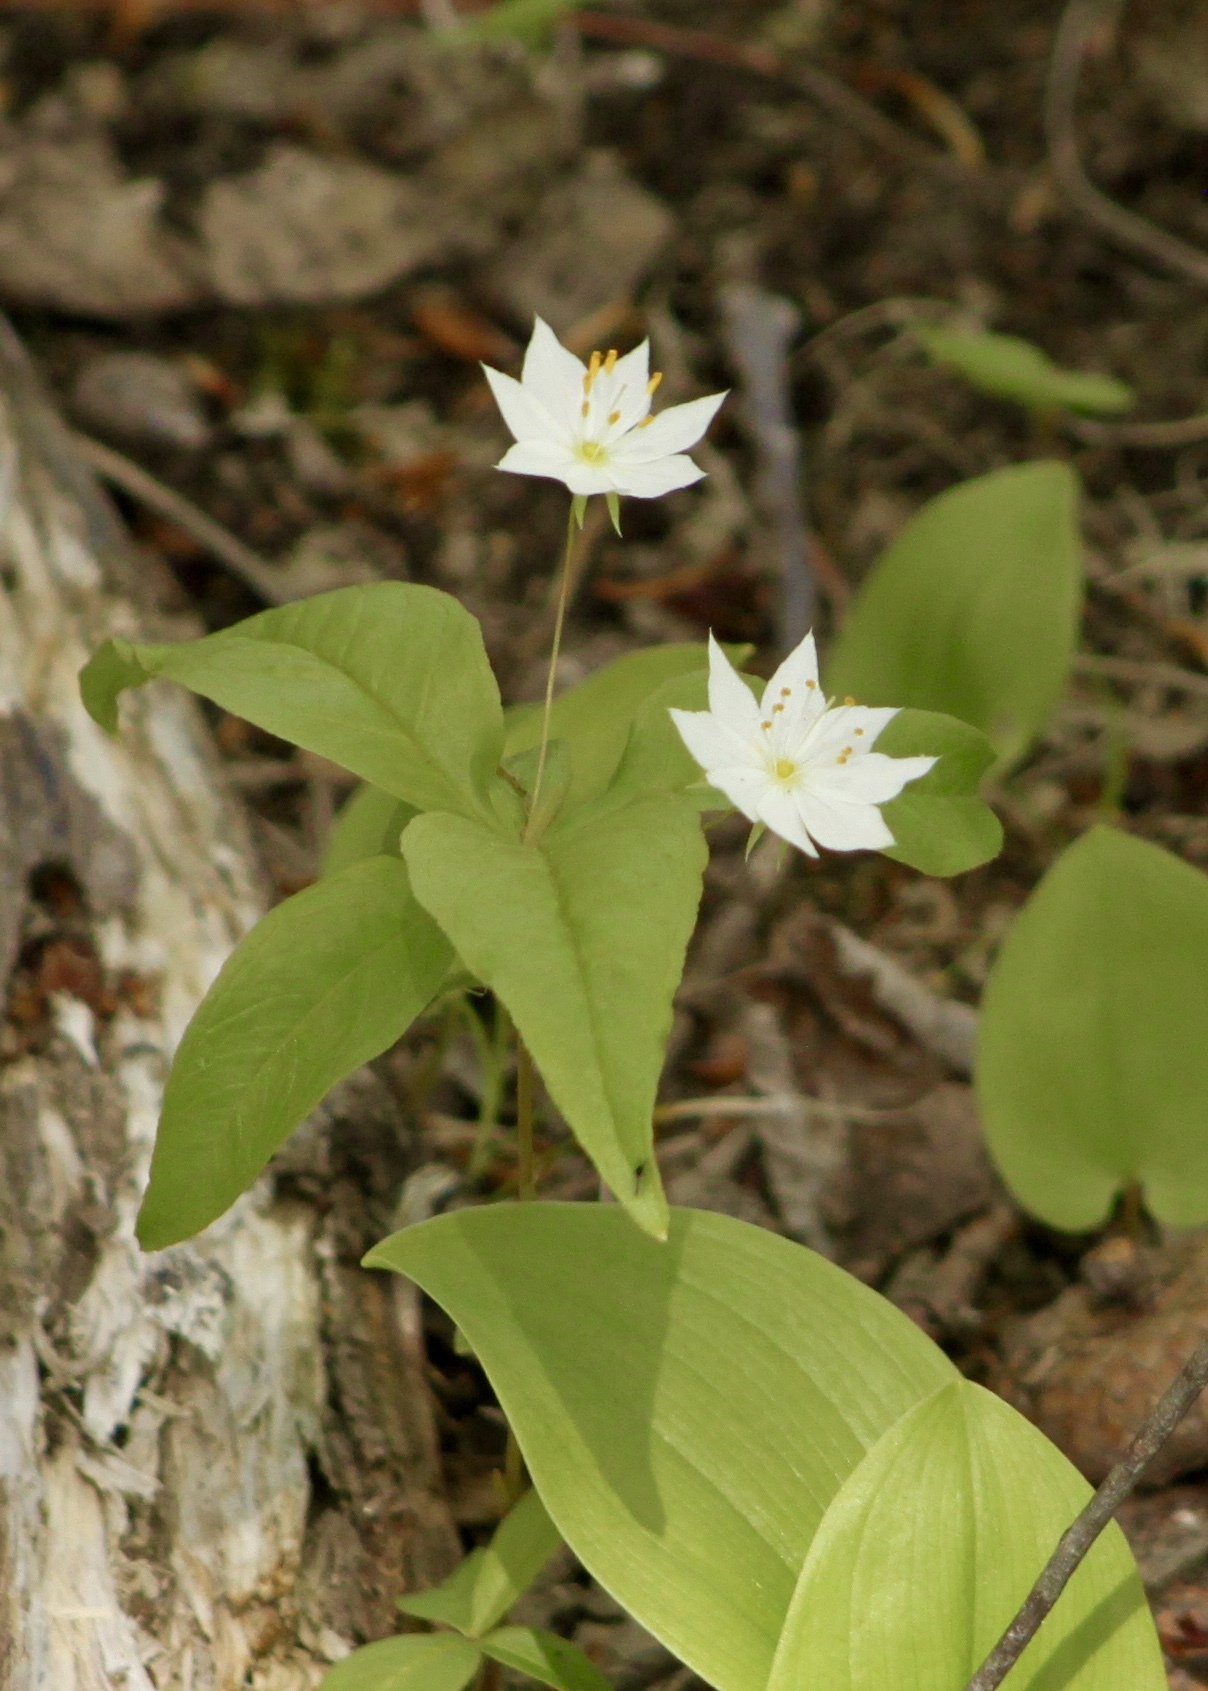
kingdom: Plantae
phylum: Tracheophyta
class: Magnoliopsida
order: Ericales
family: Primulaceae
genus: Lysimachia
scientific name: Lysimachia borealis
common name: American starflower
